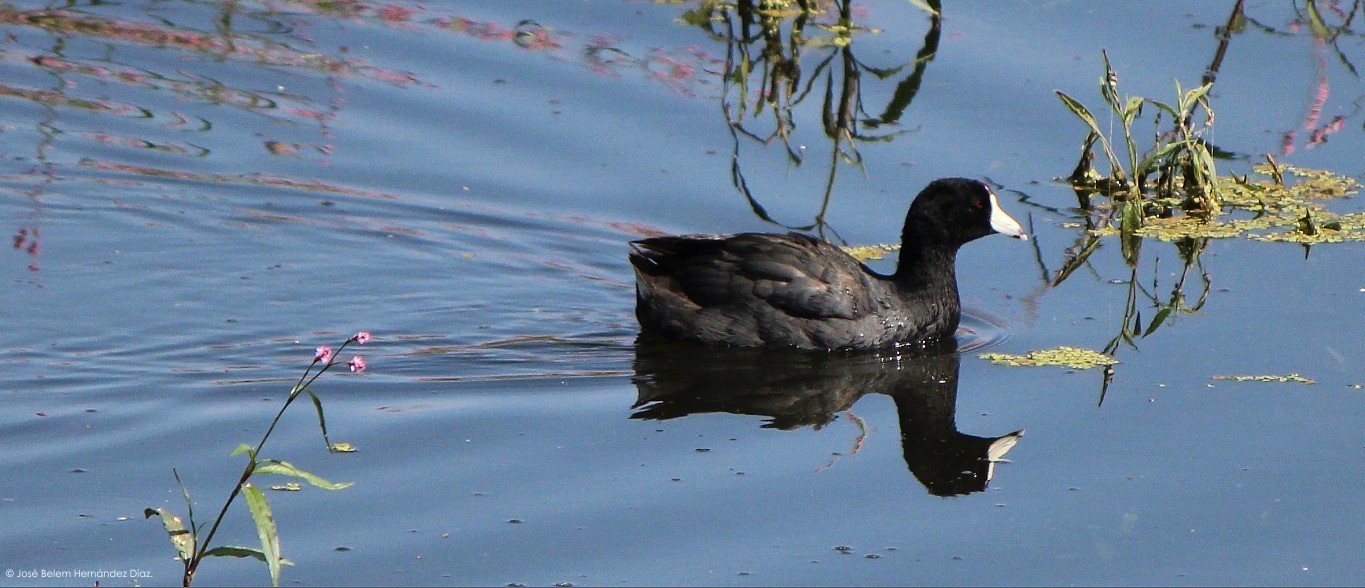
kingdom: Animalia
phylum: Chordata
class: Aves
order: Gruiformes
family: Rallidae
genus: Fulica
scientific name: Fulica americana
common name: American coot
